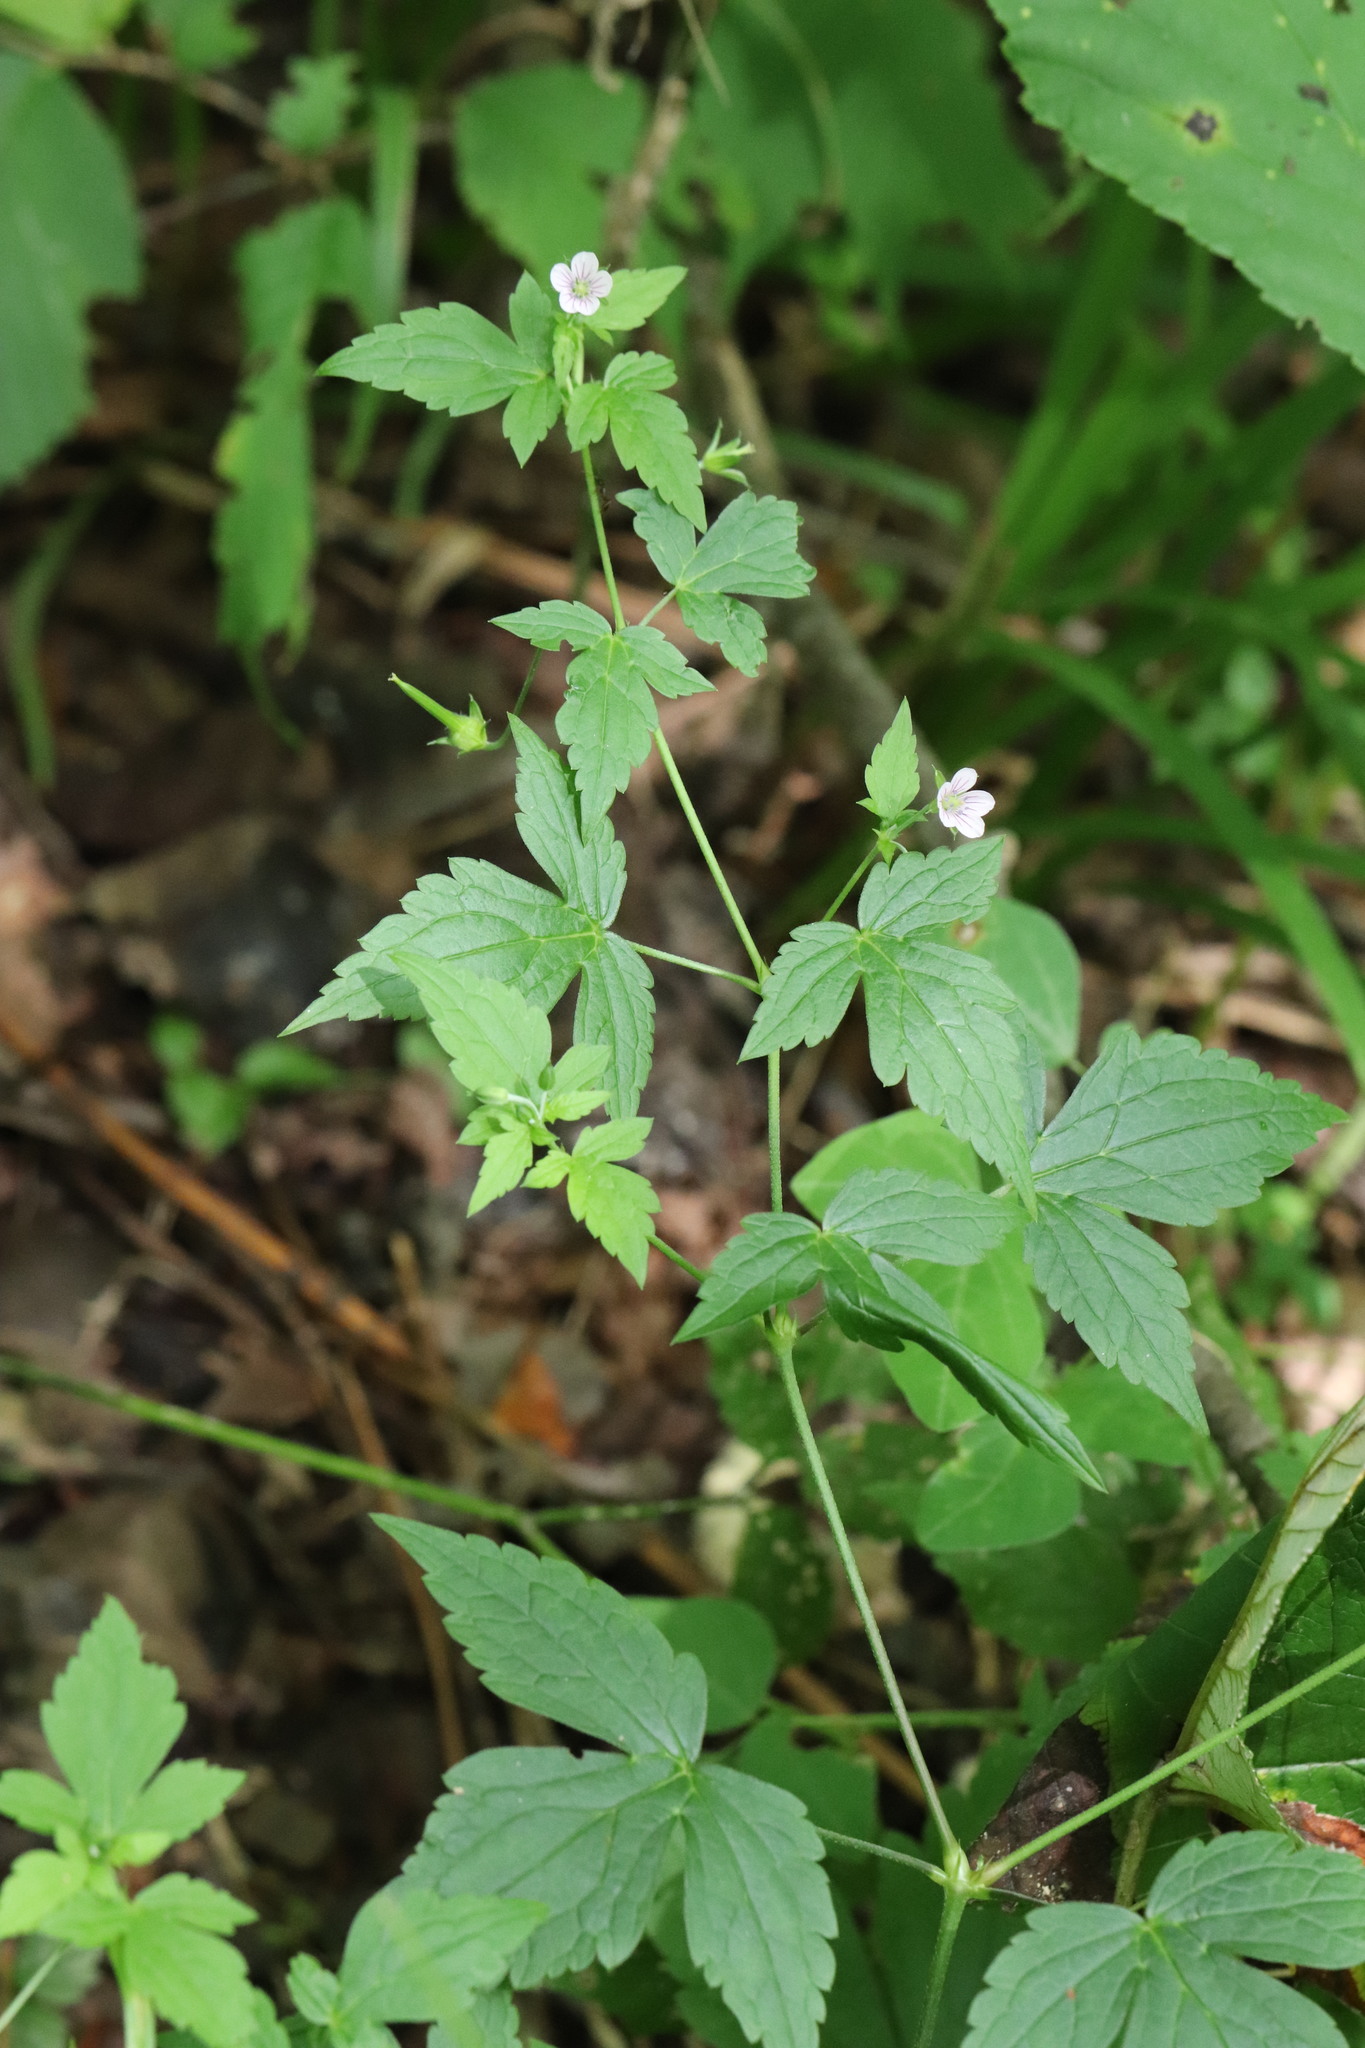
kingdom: Plantae
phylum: Tracheophyta
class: Magnoliopsida
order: Geraniales
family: Geraniaceae
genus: Geranium
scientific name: Geranium wilfordii
